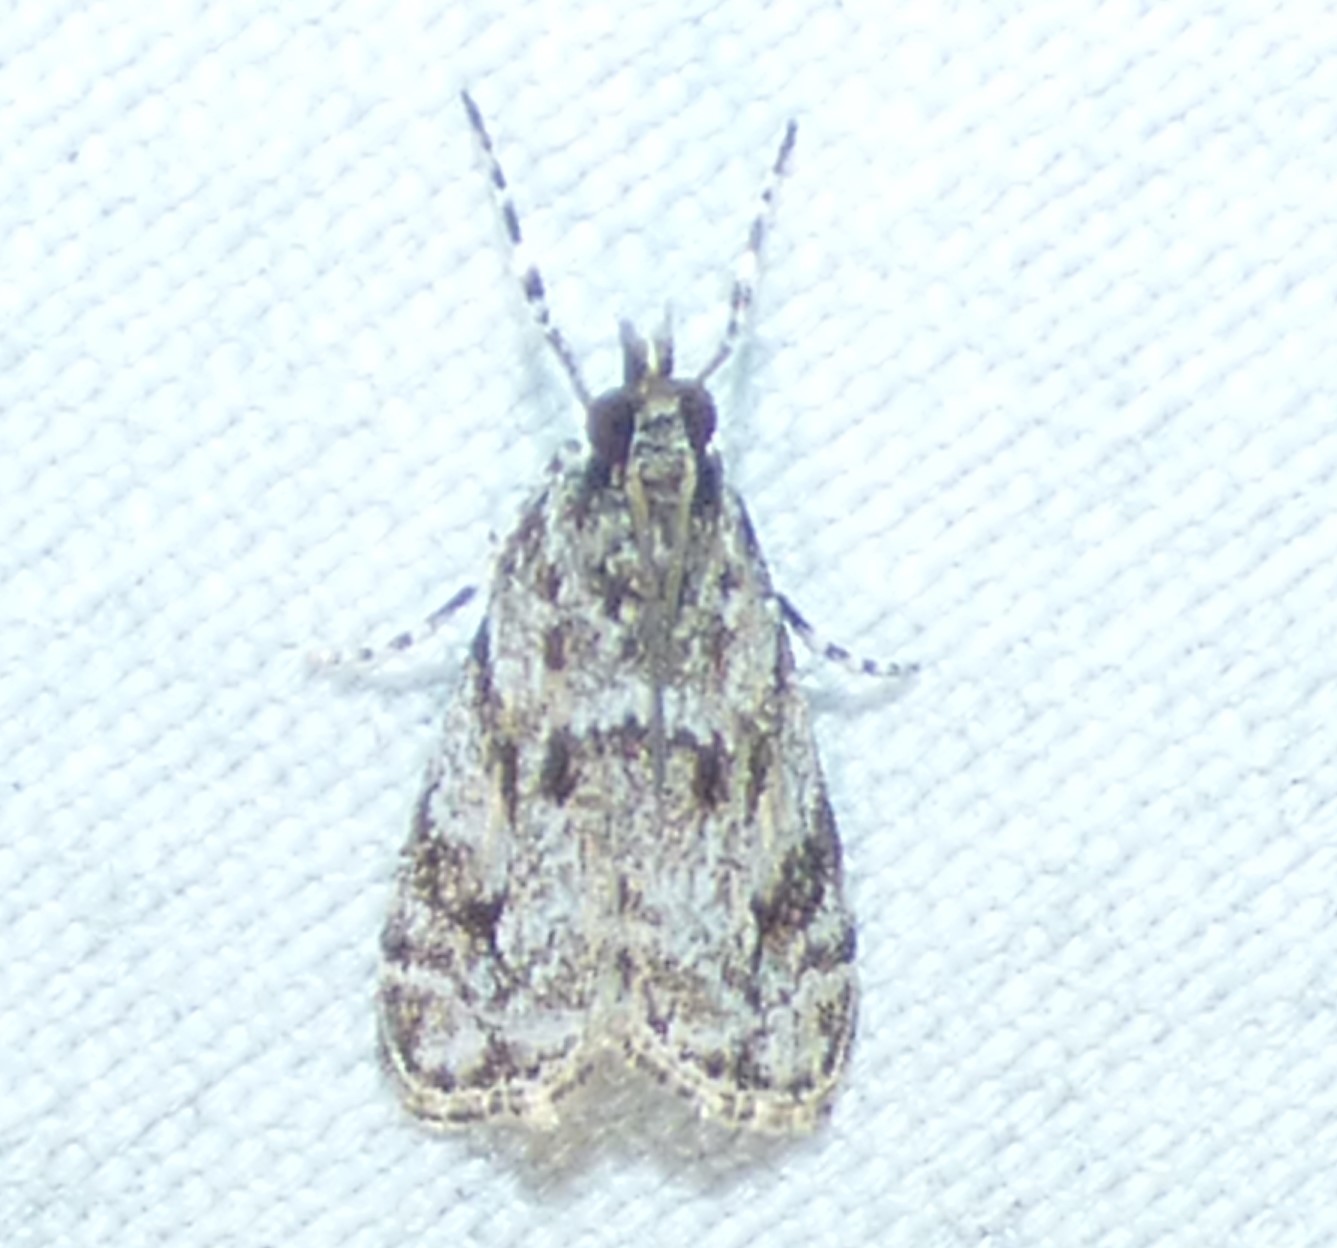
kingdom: Animalia
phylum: Arthropoda
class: Insecta
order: Lepidoptera
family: Crambidae
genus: Eudonia
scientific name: Eudonia heterosalis
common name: Mcdunnough's eudonia
